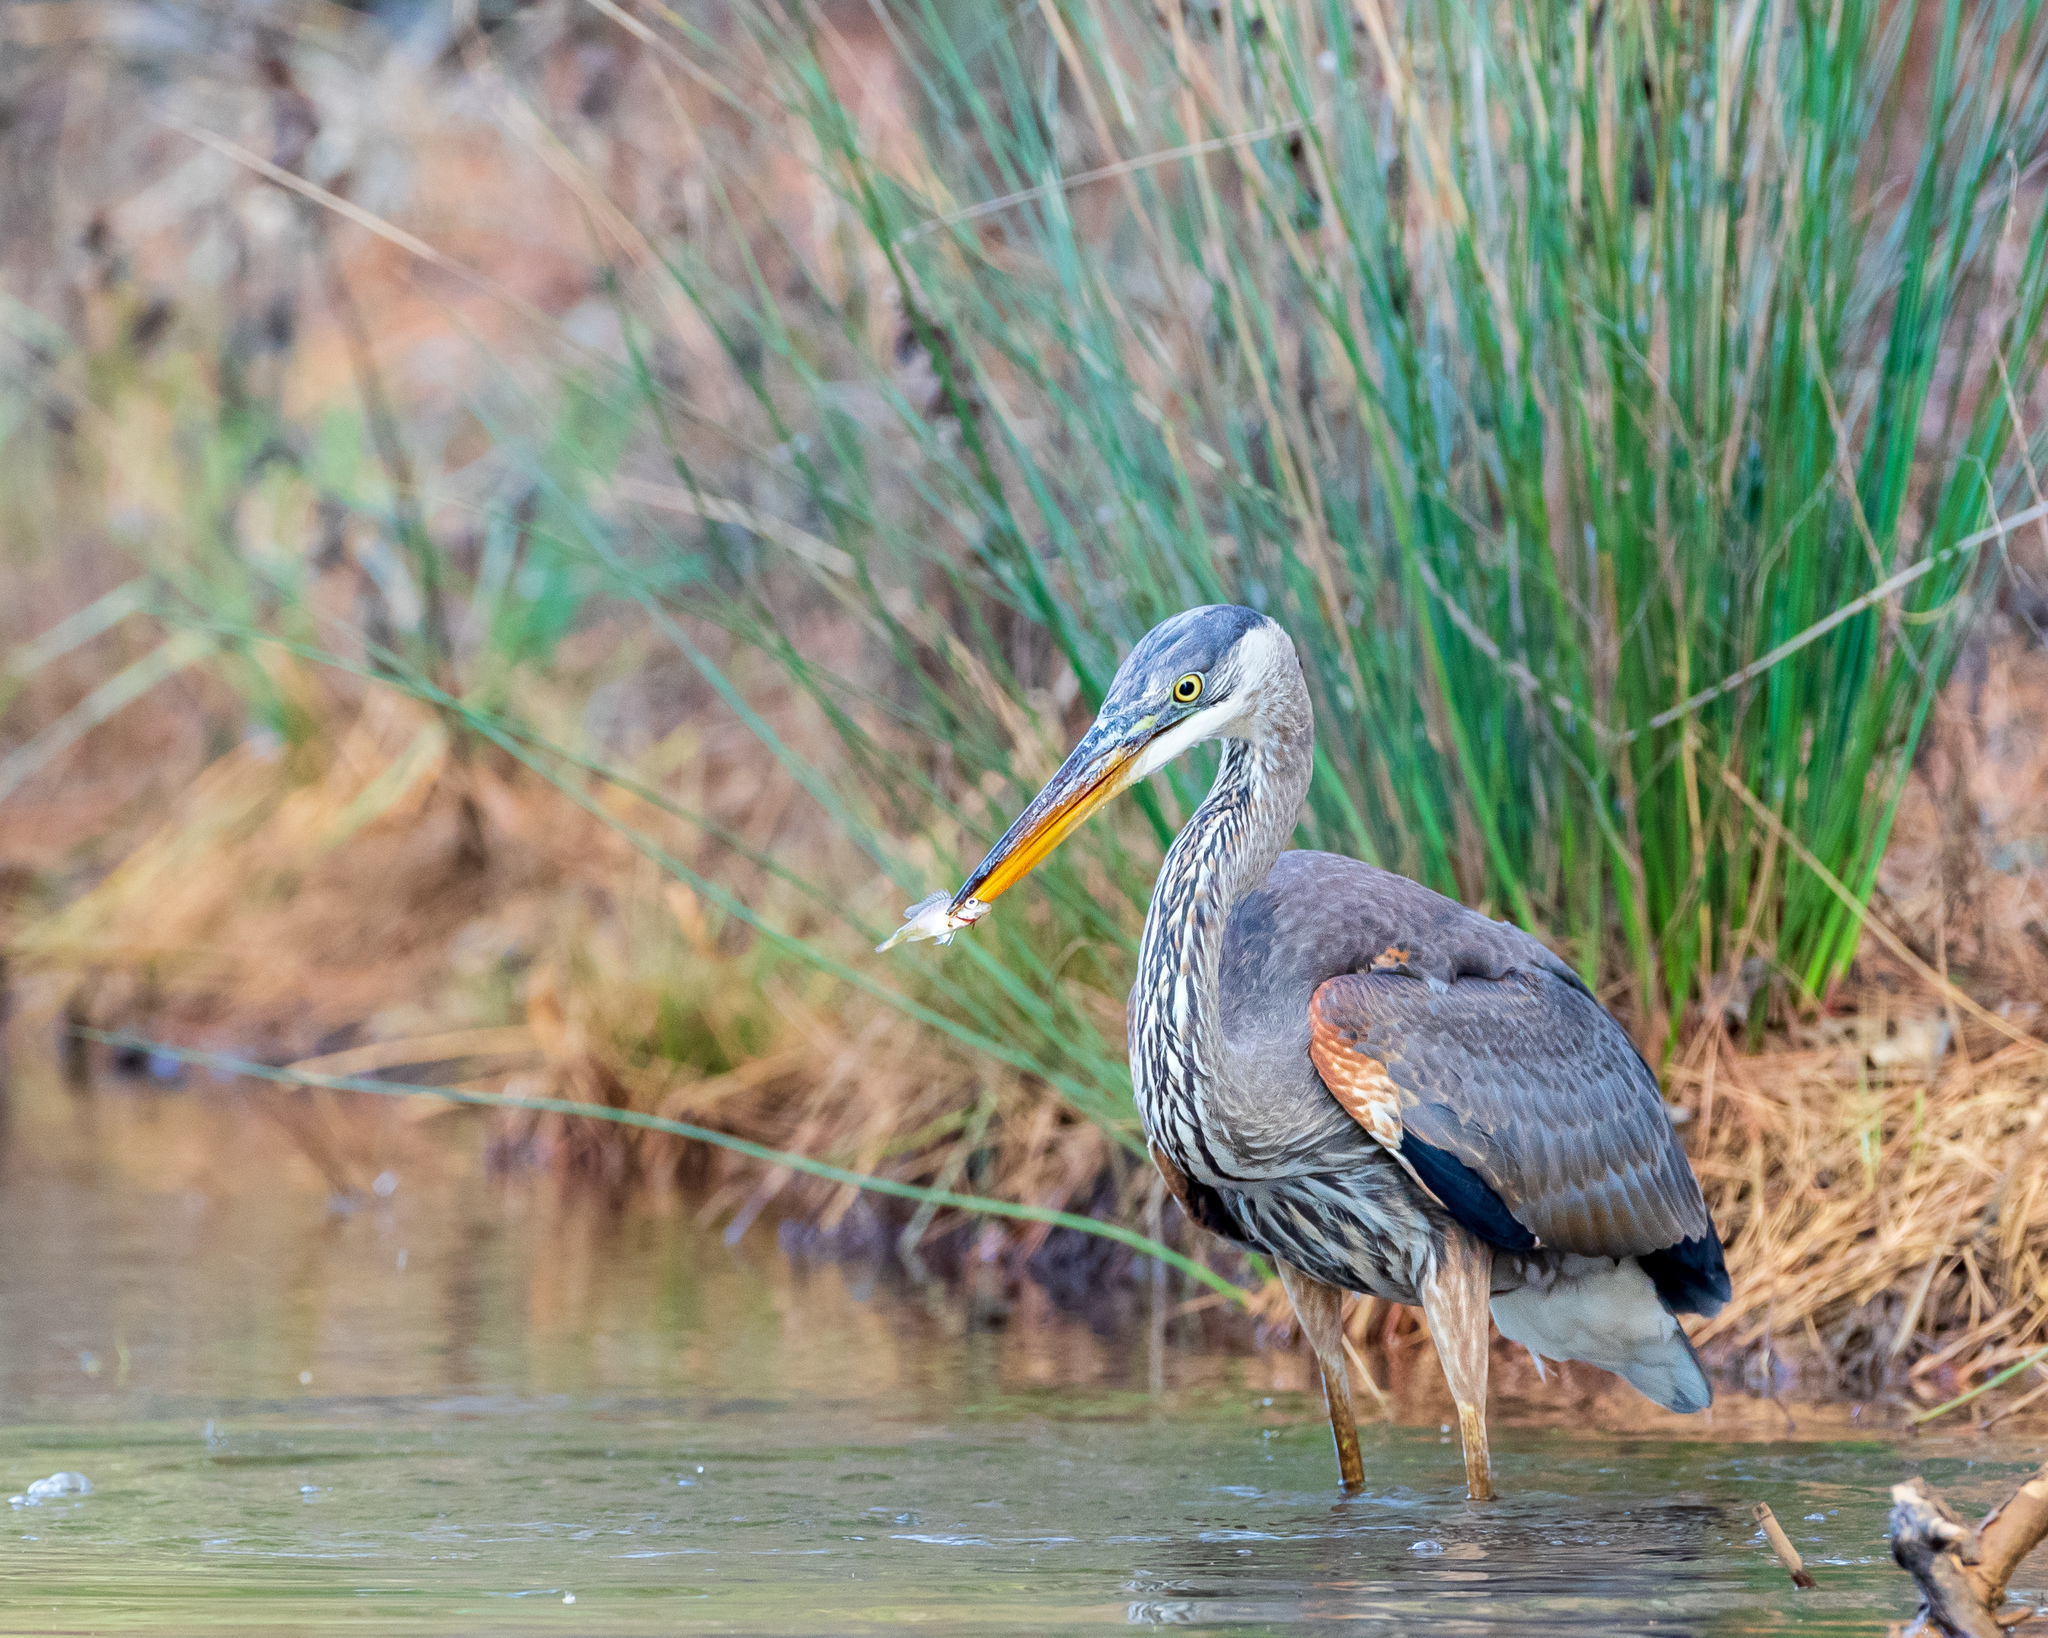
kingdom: Animalia
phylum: Chordata
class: Aves
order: Pelecaniformes
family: Ardeidae
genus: Ardea
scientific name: Ardea herodias
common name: Great blue heron
